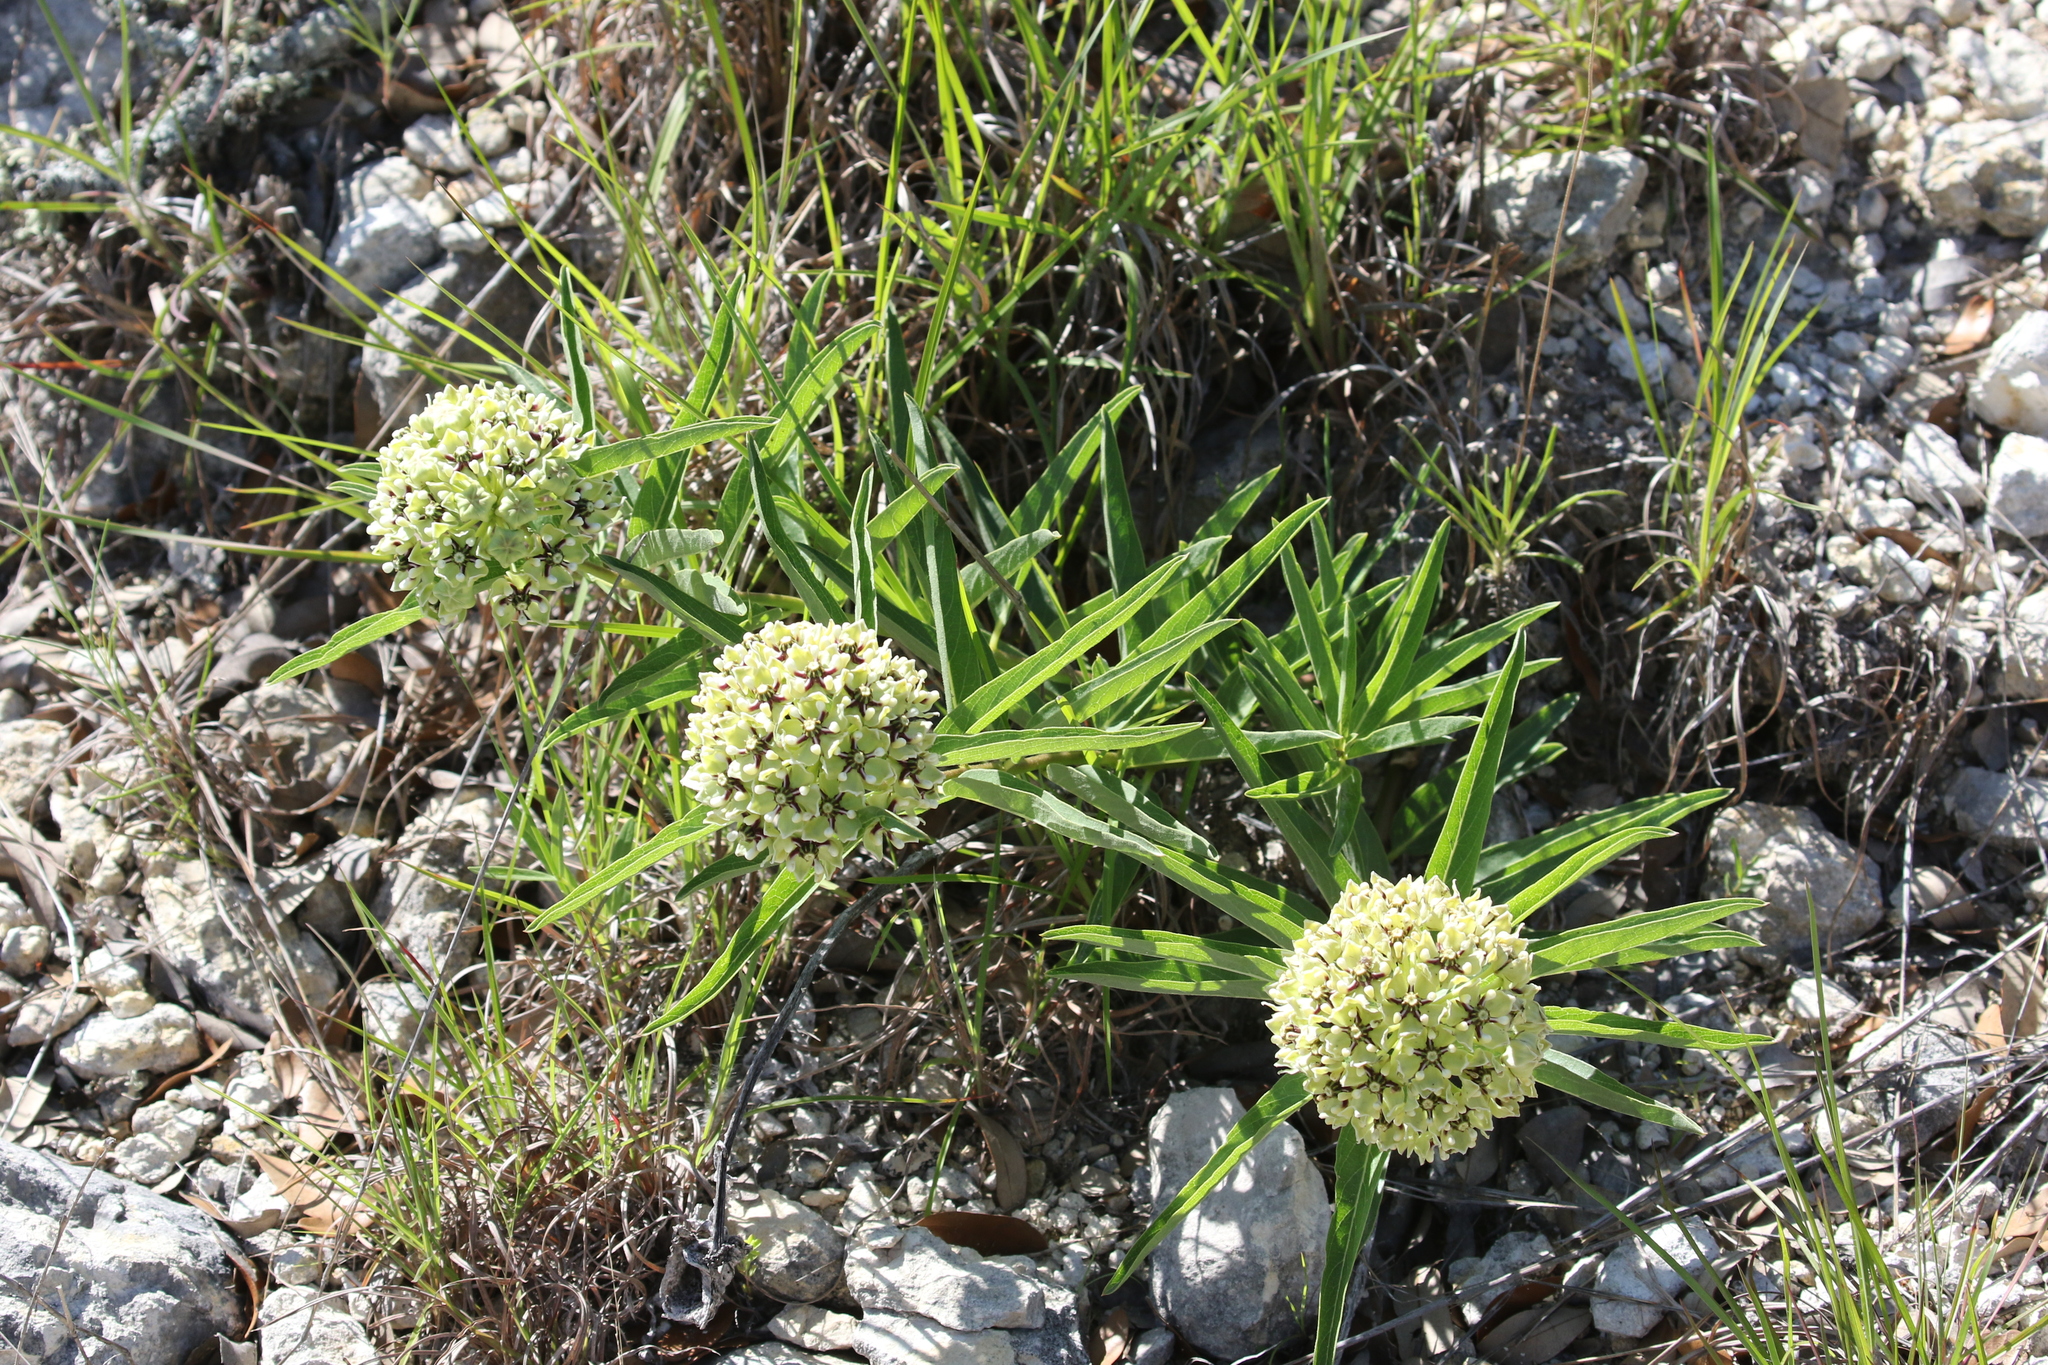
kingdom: Plantae
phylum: Tracheophyta
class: Magnoliopsida
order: Gentianales
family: Apocynaceae
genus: Asclepias
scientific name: Asclepias asperula
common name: Antelope horns
